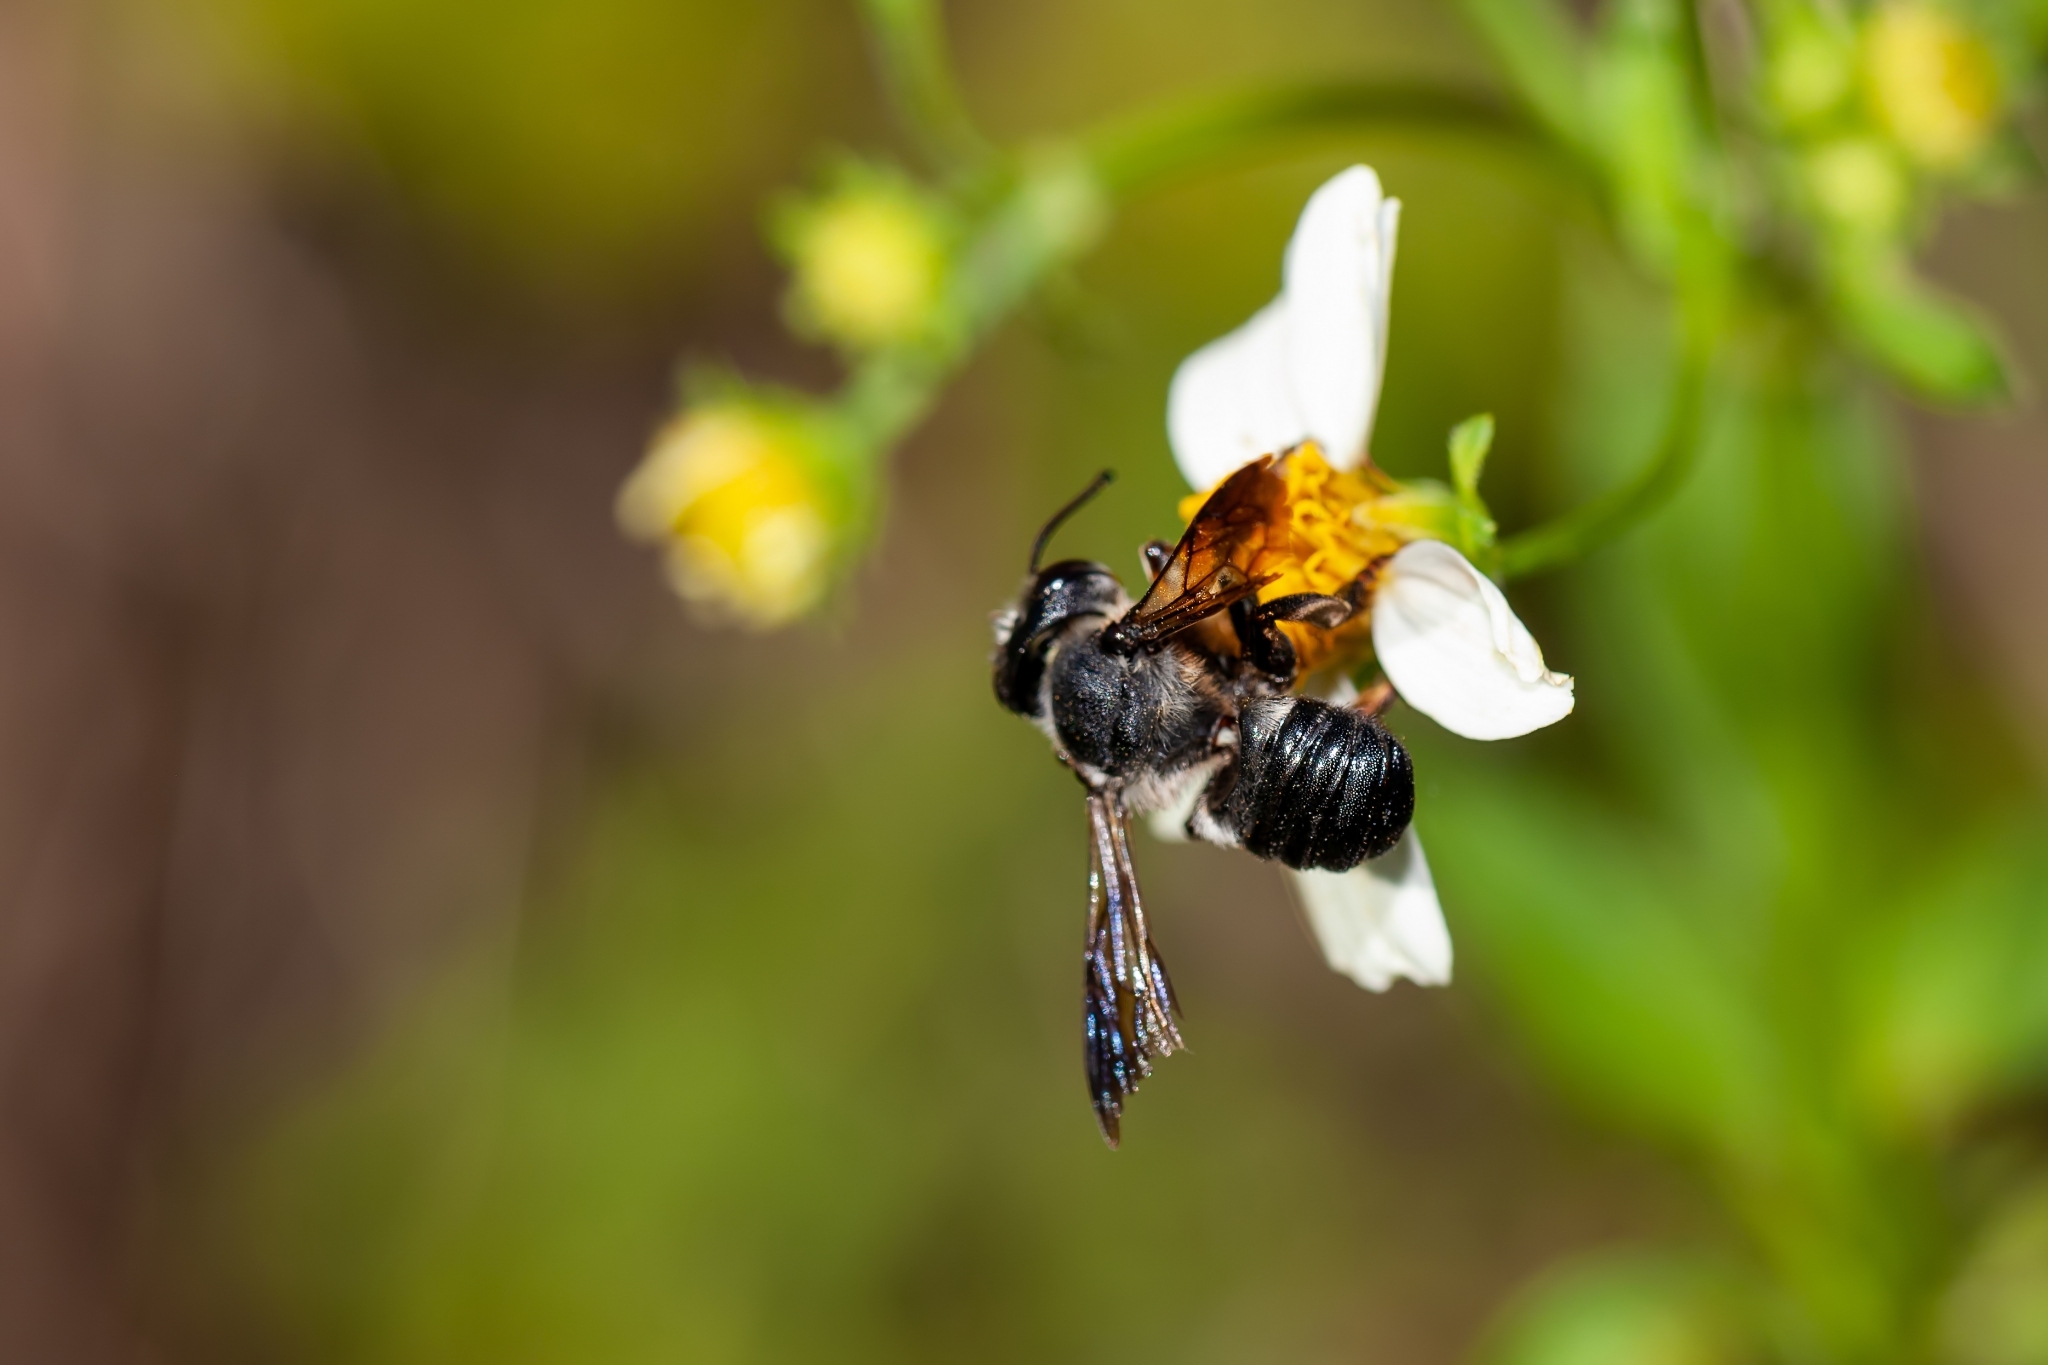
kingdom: Animalia
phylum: Arthropoda
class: Insecta
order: Hymenoptera
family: Megachilidae
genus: Megachile
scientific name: Megachile xylocopoides
